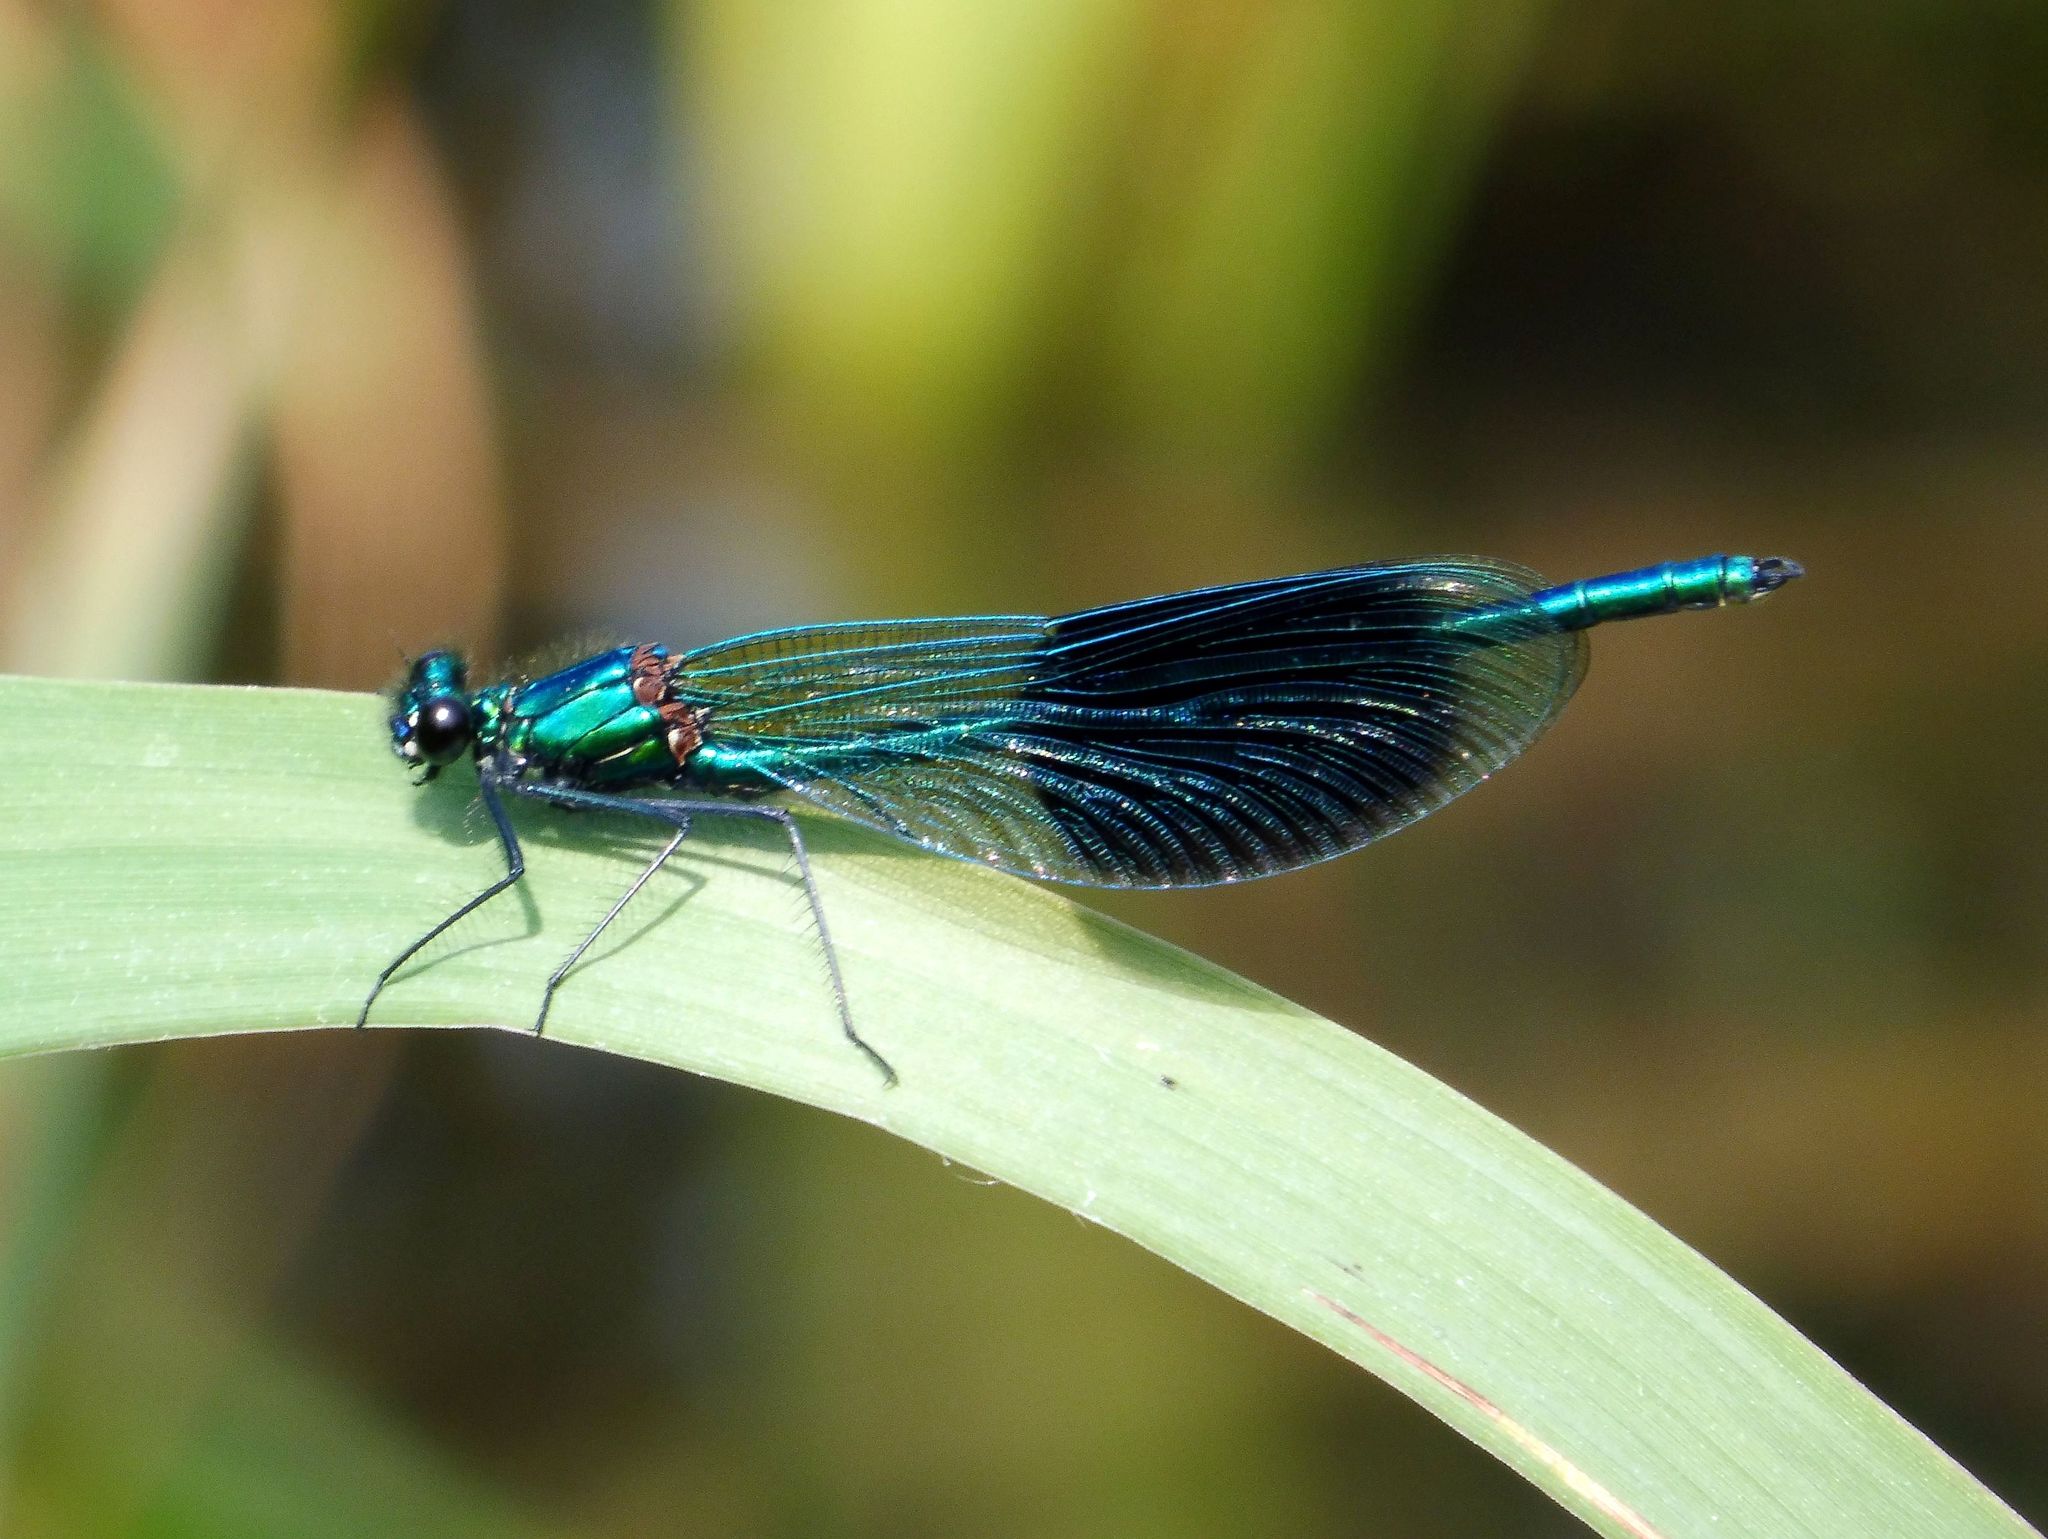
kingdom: Animalia
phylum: Arthropoda
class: Insecta
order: Odonata
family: Calopterygidae
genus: Calopteryx
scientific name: Calopteryx splendens
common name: Banded demoiselle
